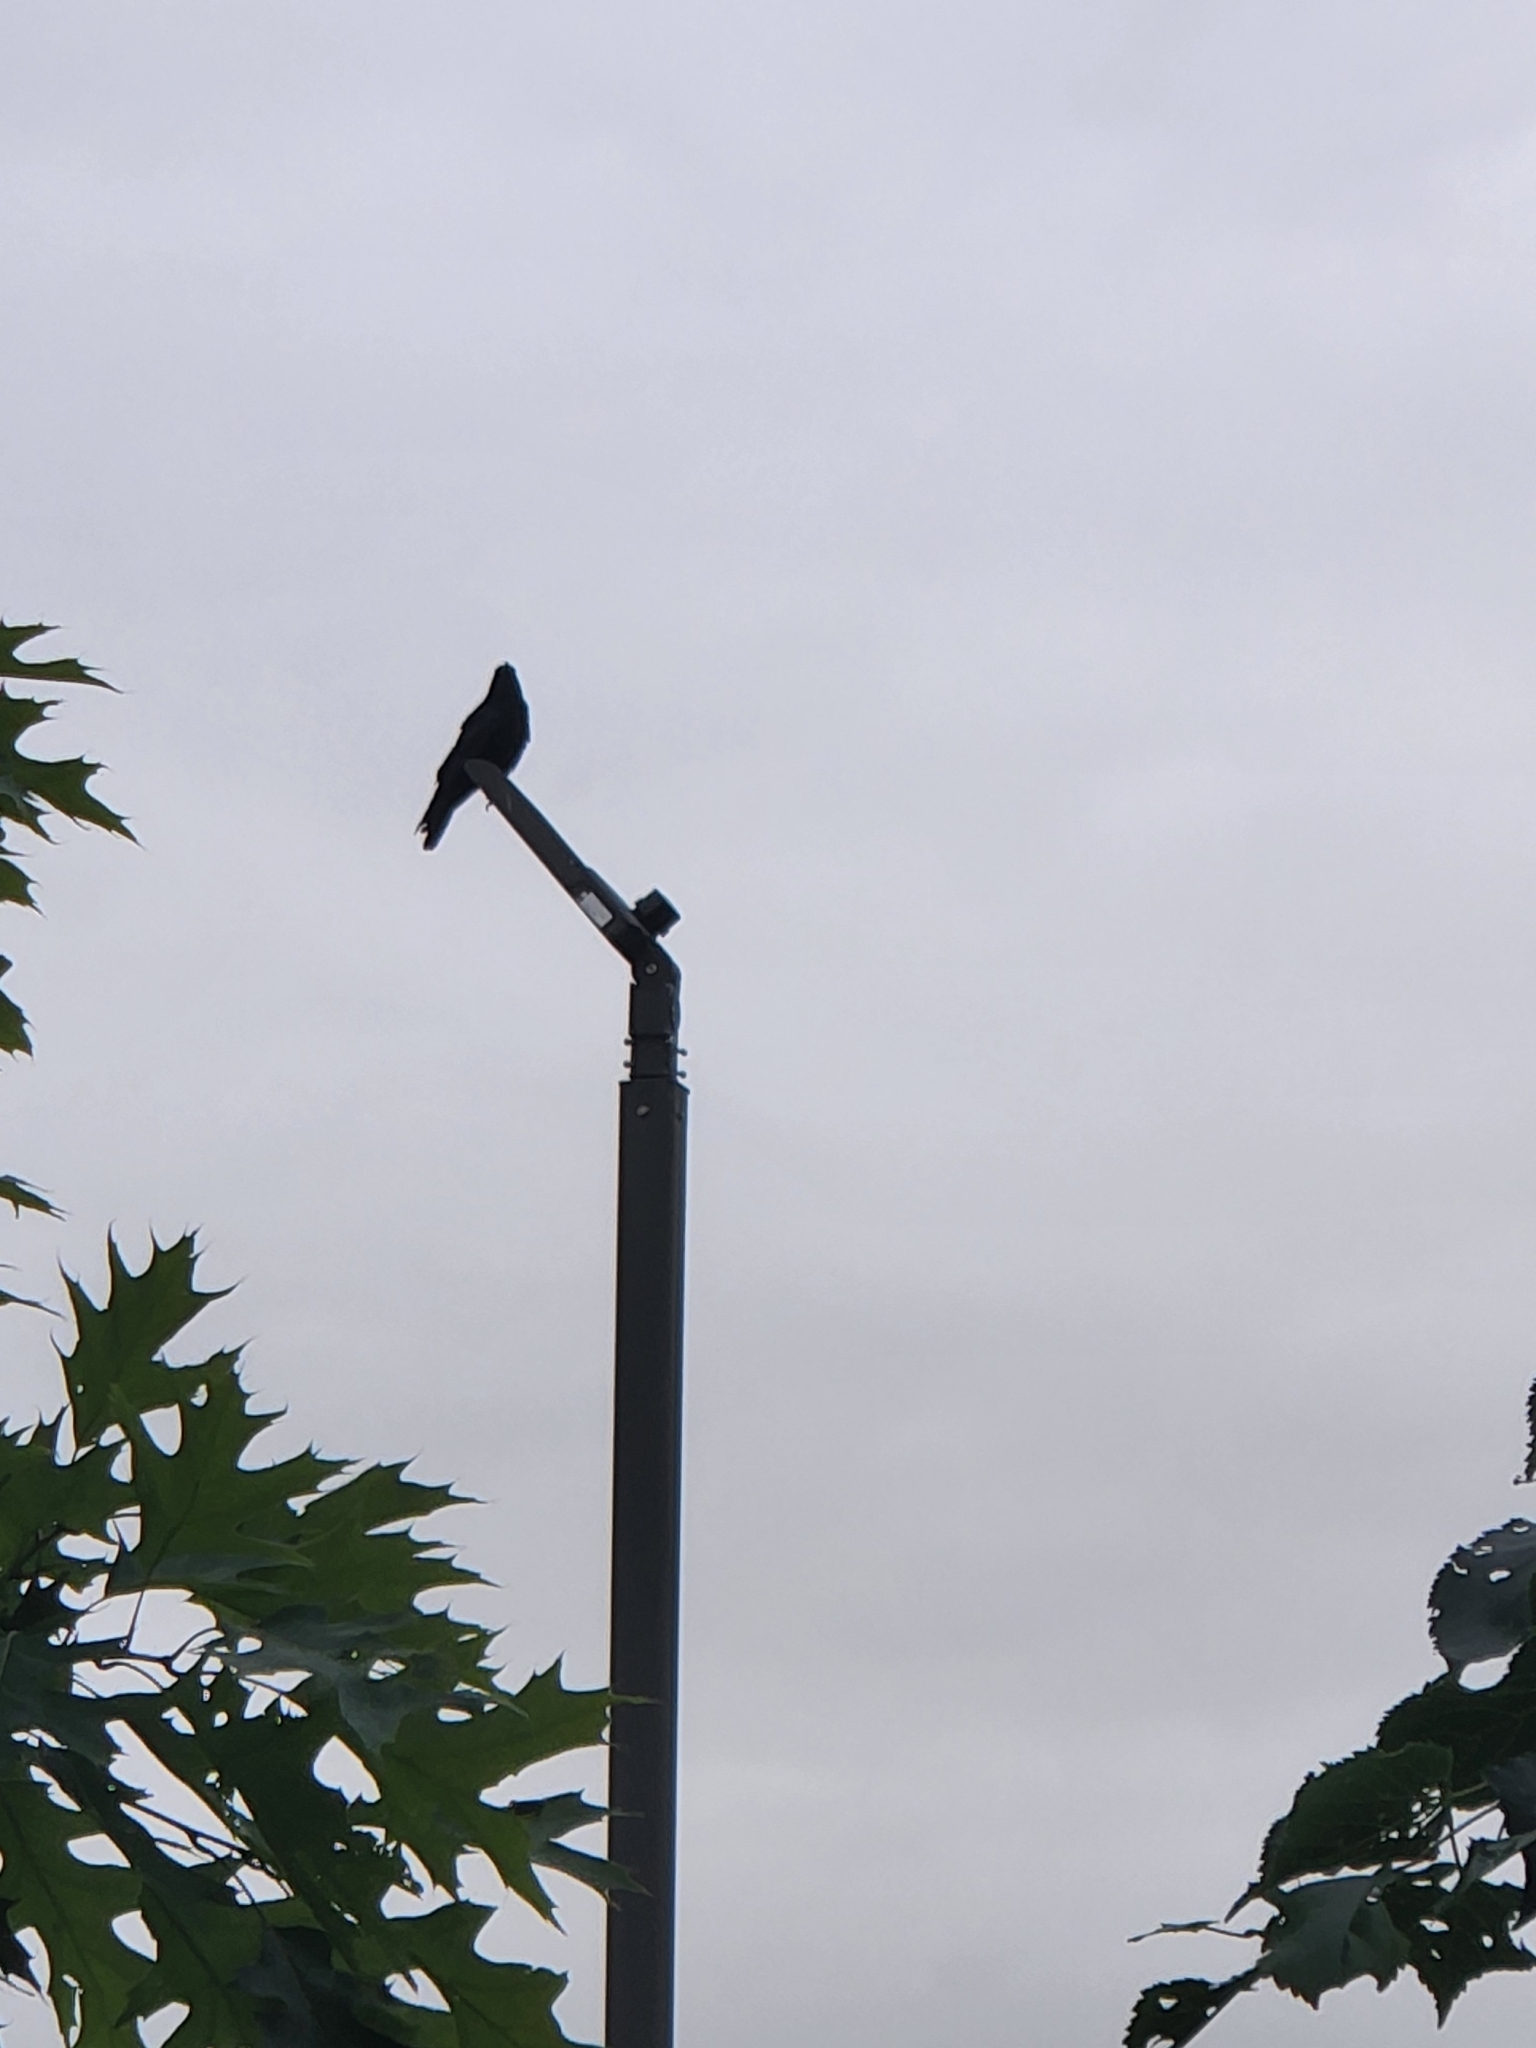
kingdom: Animalia
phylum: Chordata
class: Aves
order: Passeriformes
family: Corvidae
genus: Corvus
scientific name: Corvus brachyrhynchos
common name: American crow
